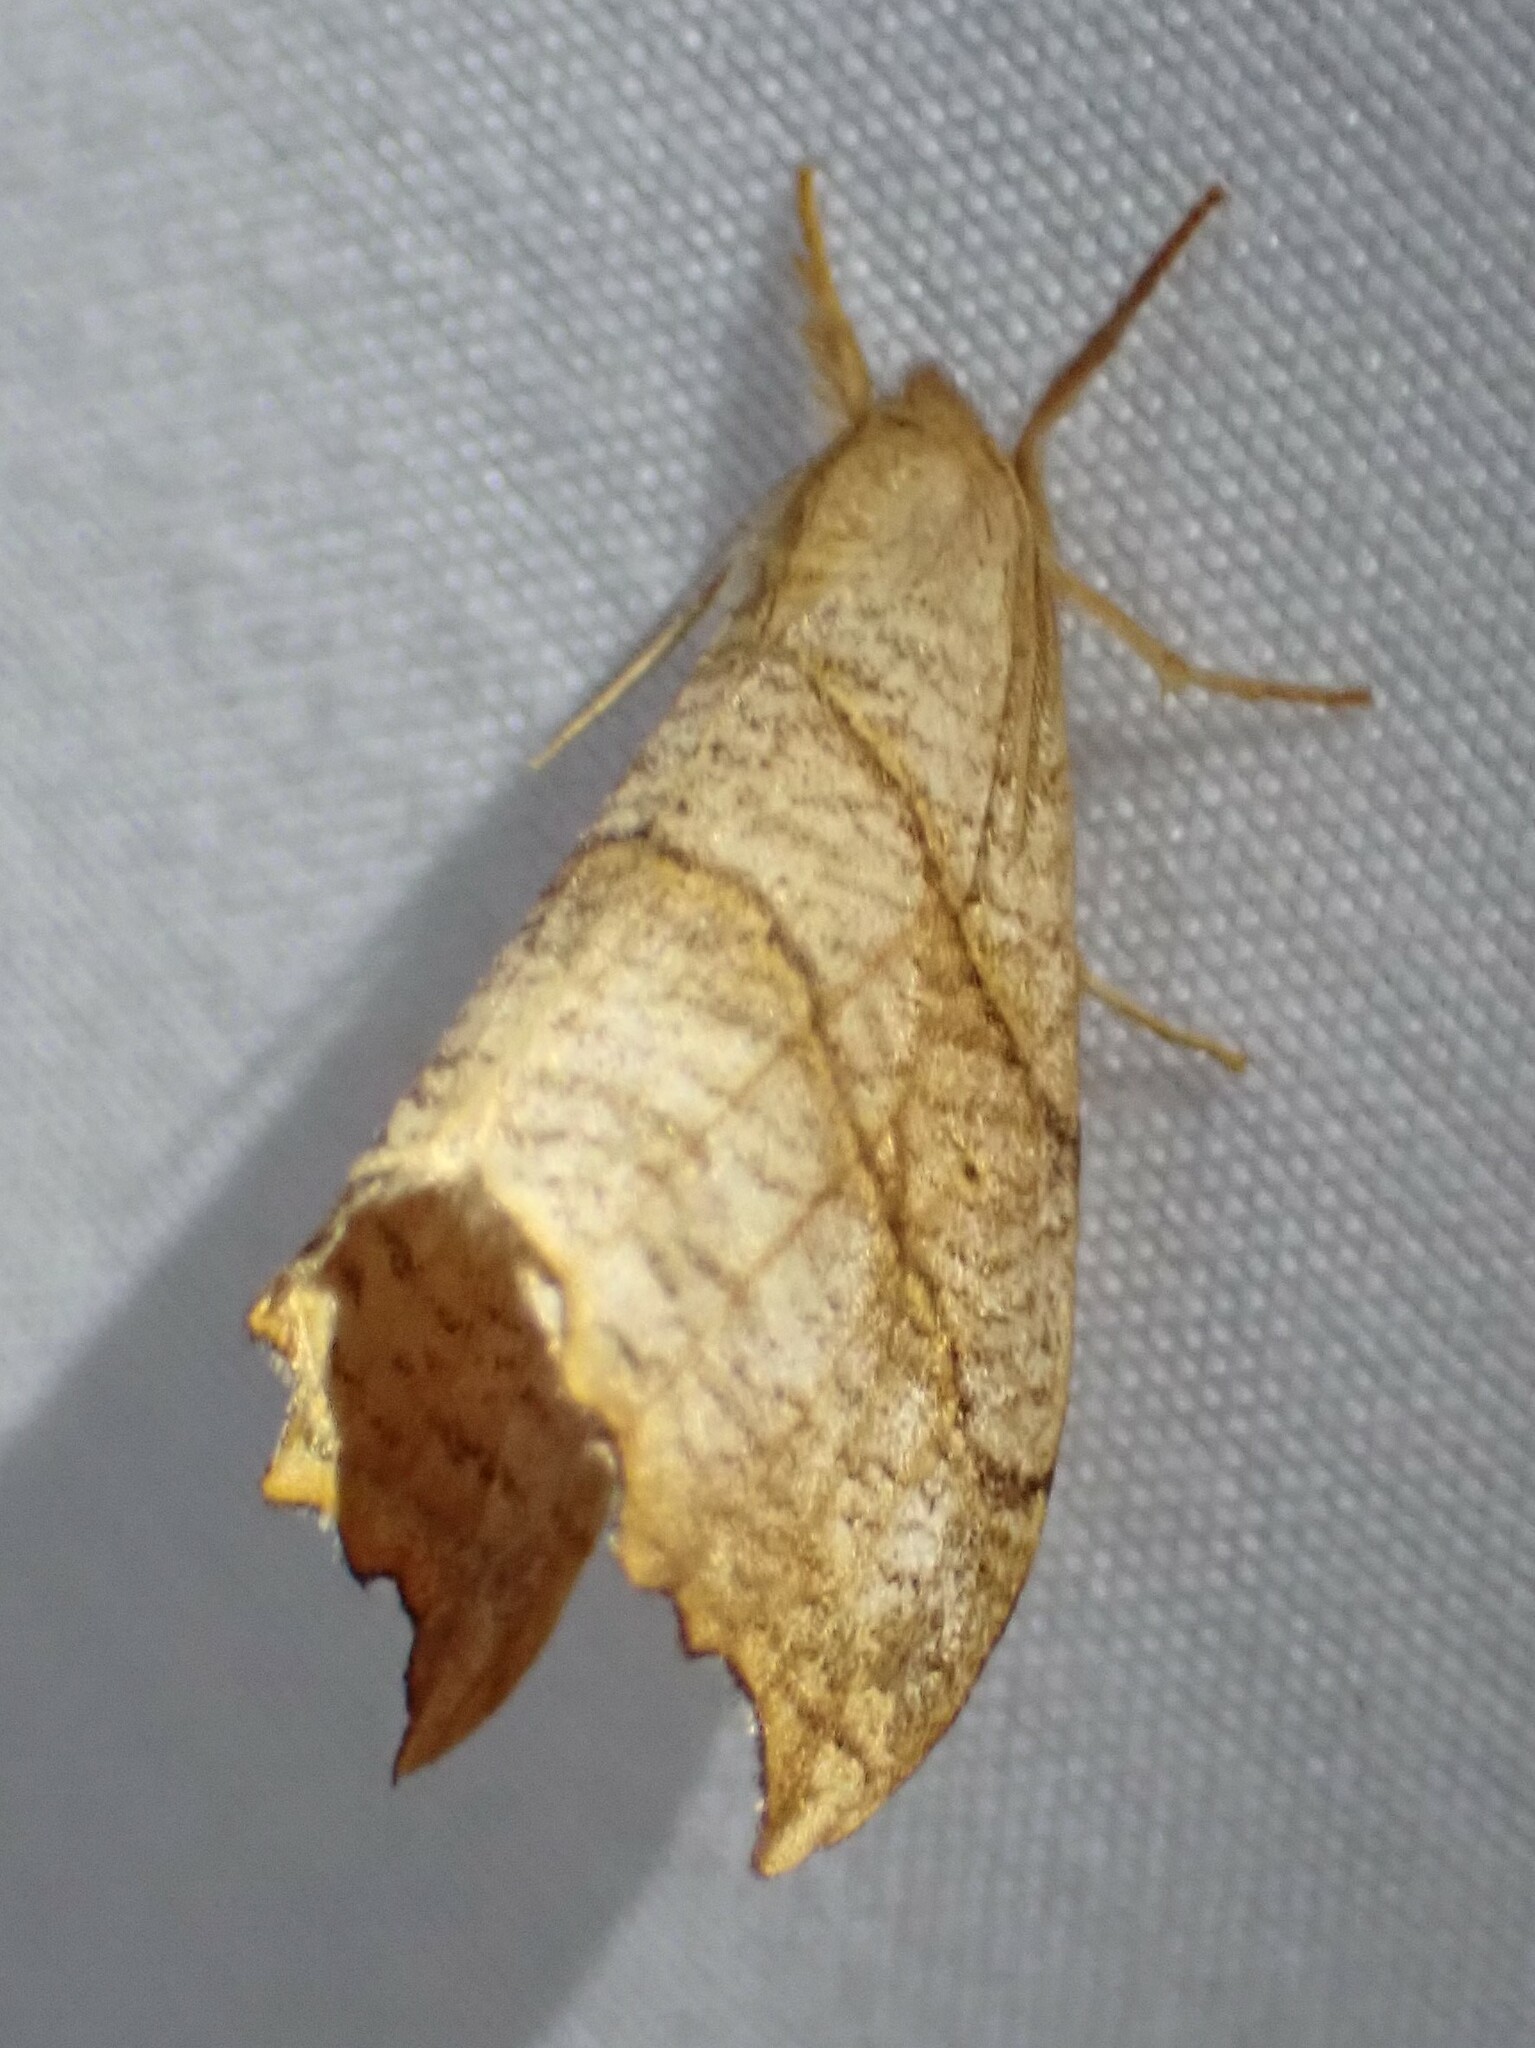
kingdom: Animalia
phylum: Arthropoda
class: Insecta
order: Lepidoptera
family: Drepanidae
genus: Falcaria
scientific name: Falcaria bilineata
